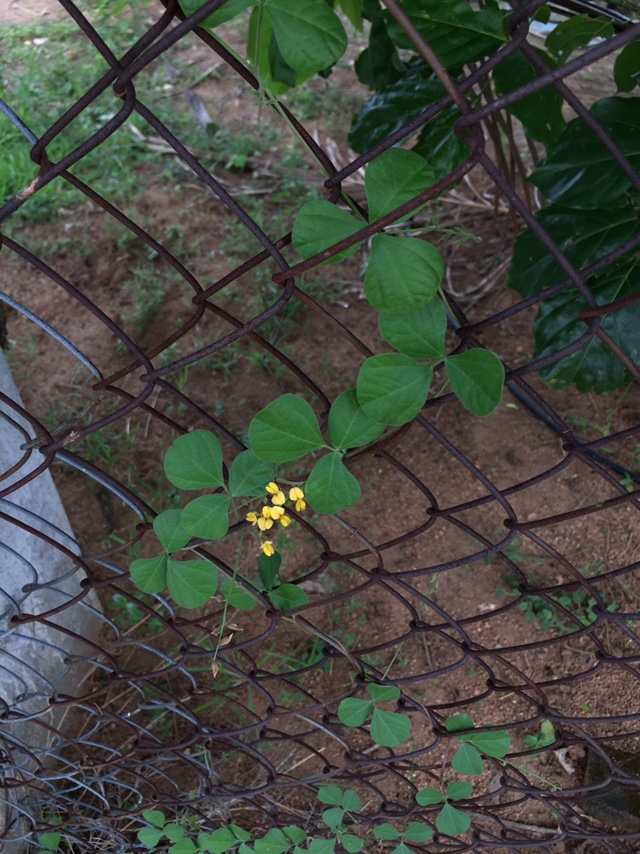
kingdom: Plantae
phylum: Tracheophyta
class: Magnoliopsida
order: Fabales
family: Fabaceae
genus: Rhynchosia
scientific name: Rhynchosia minima
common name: Least snoutbean
